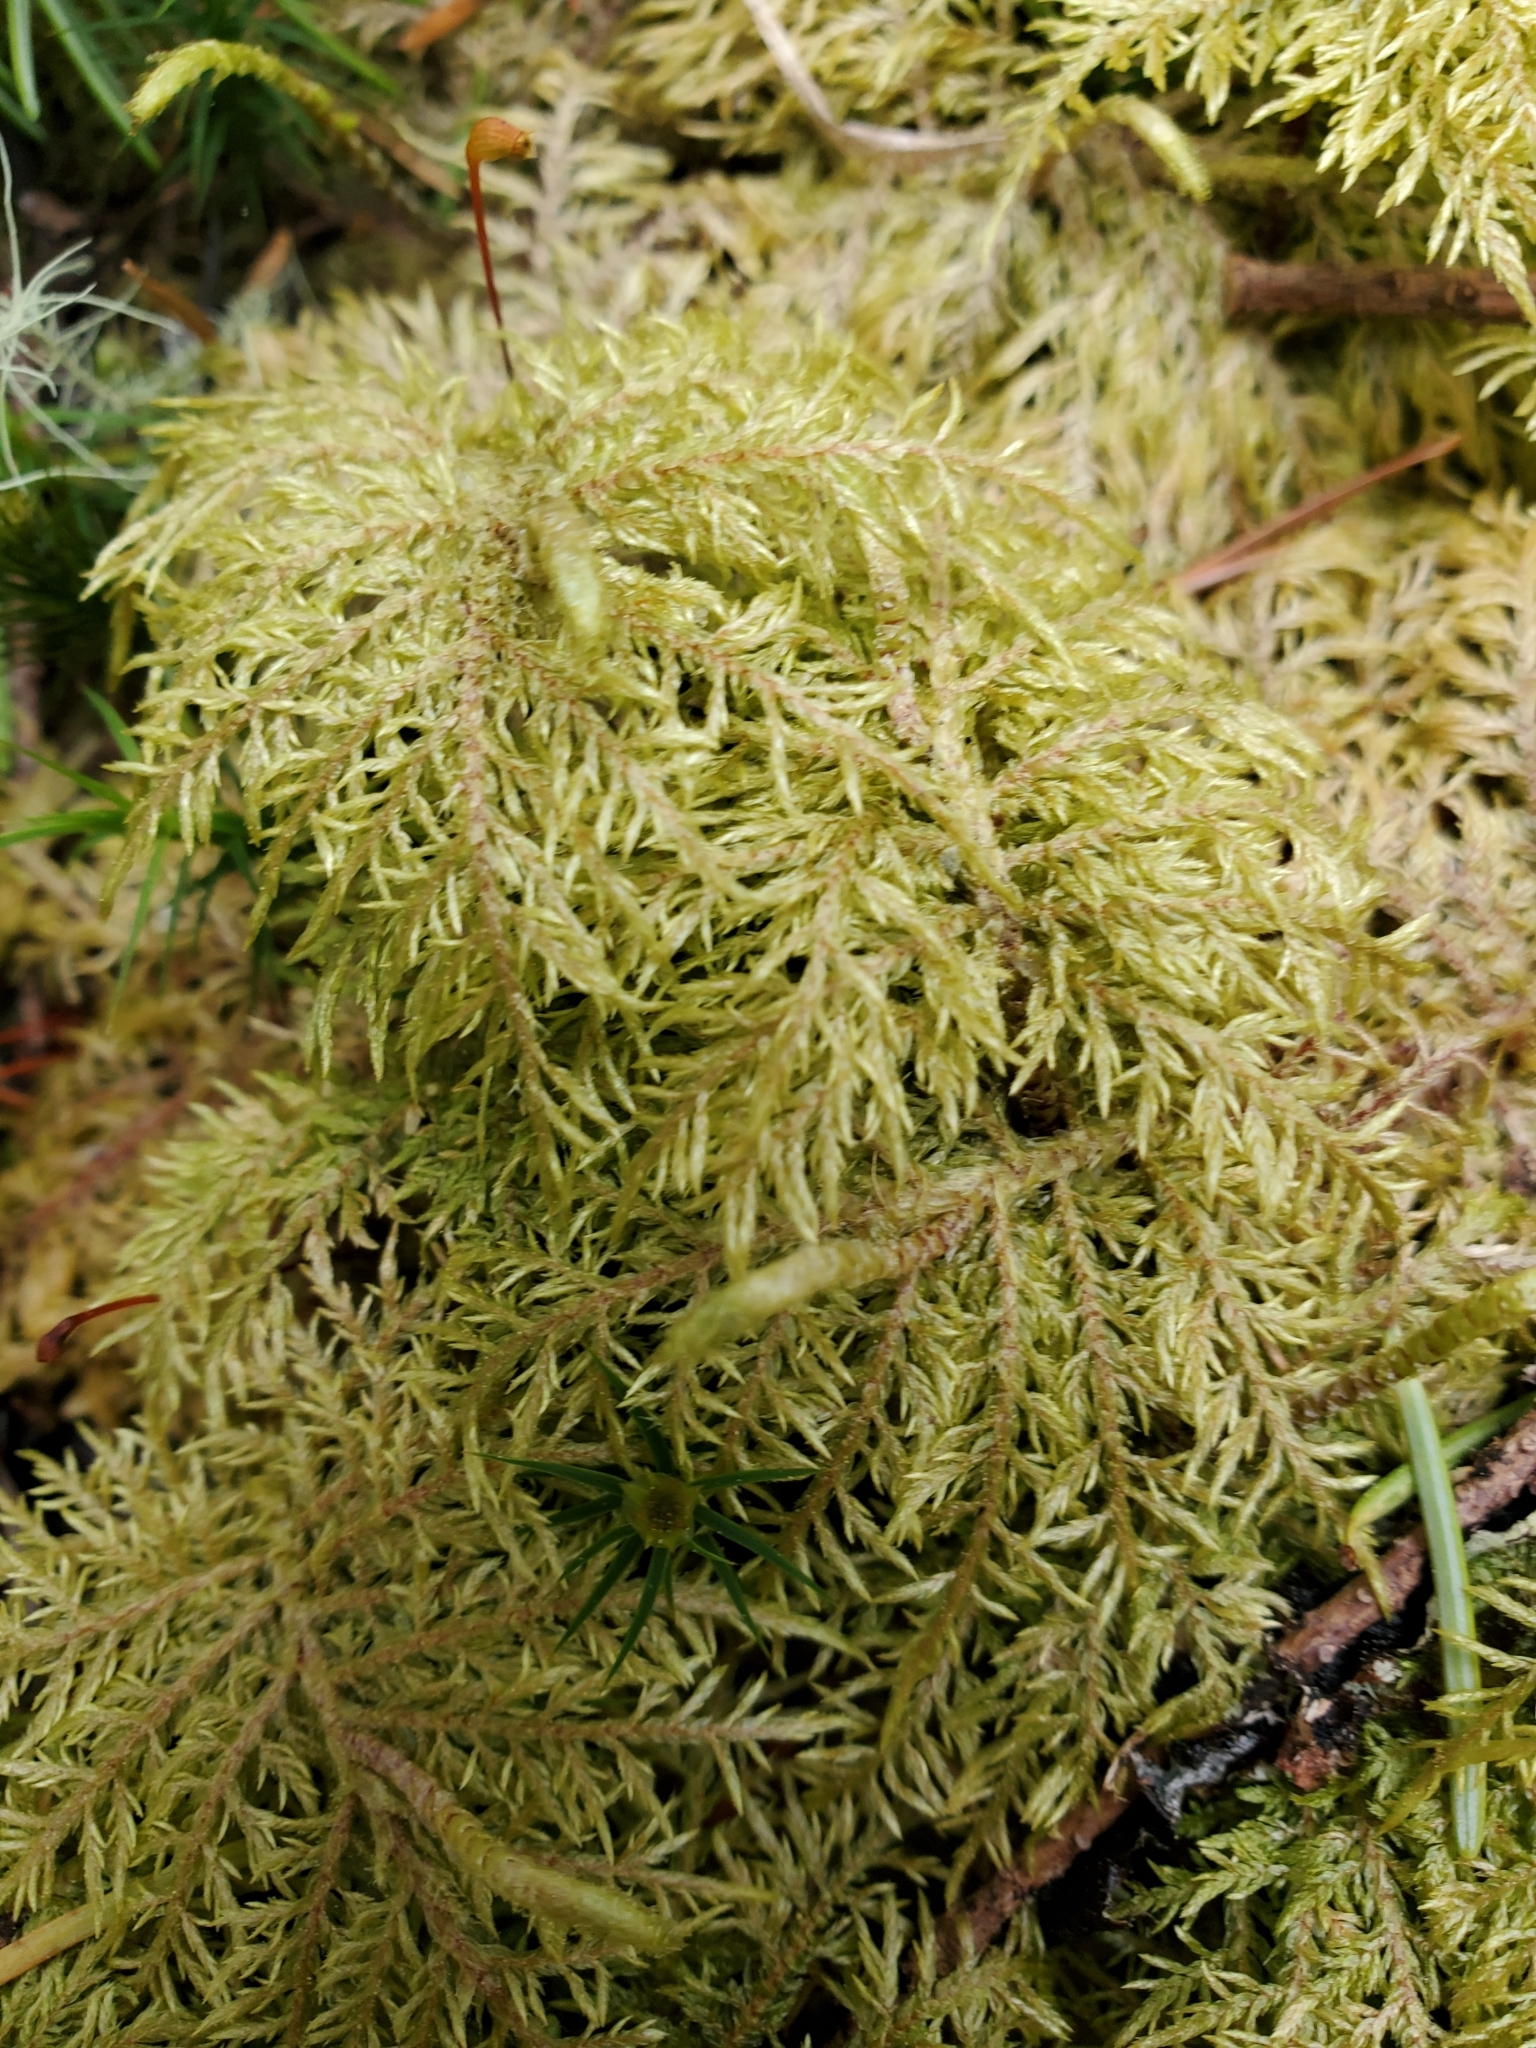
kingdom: Plantae
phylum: Bryophyta
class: Bryopsida
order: Hypnales
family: Hylocomiaceae
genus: Hylocomium
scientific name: Hylocomium splendens
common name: Stairstep moss
